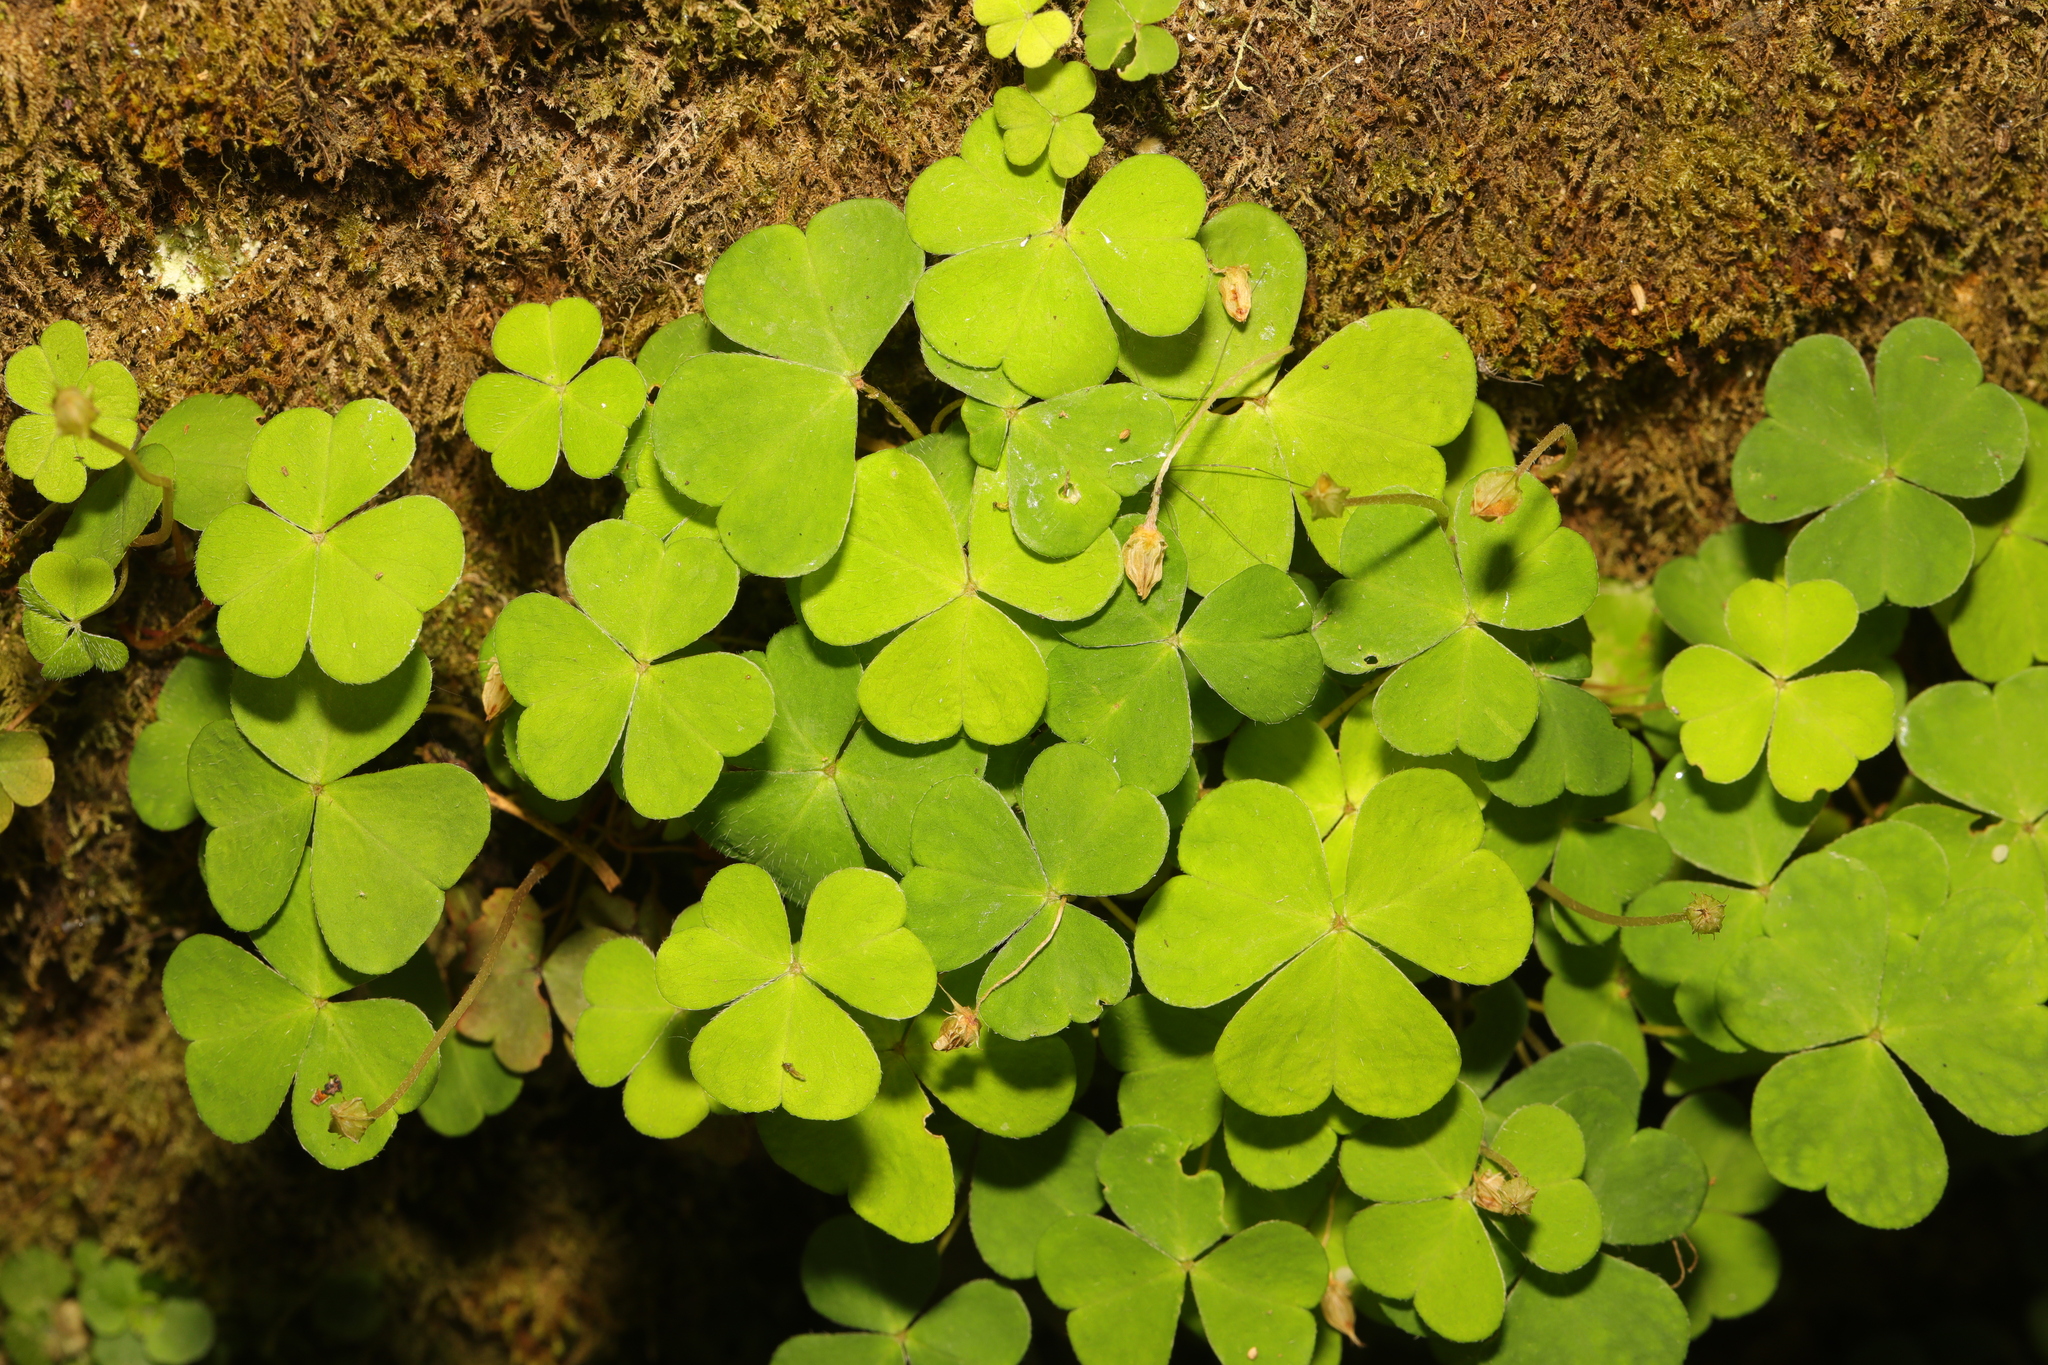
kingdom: Plantae
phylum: Tracheophyta
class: Magnoliopsida
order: Oxalidales
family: Oxalidaceae
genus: Oxalis
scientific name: Oxalis acetosella
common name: Wood-sorrel
